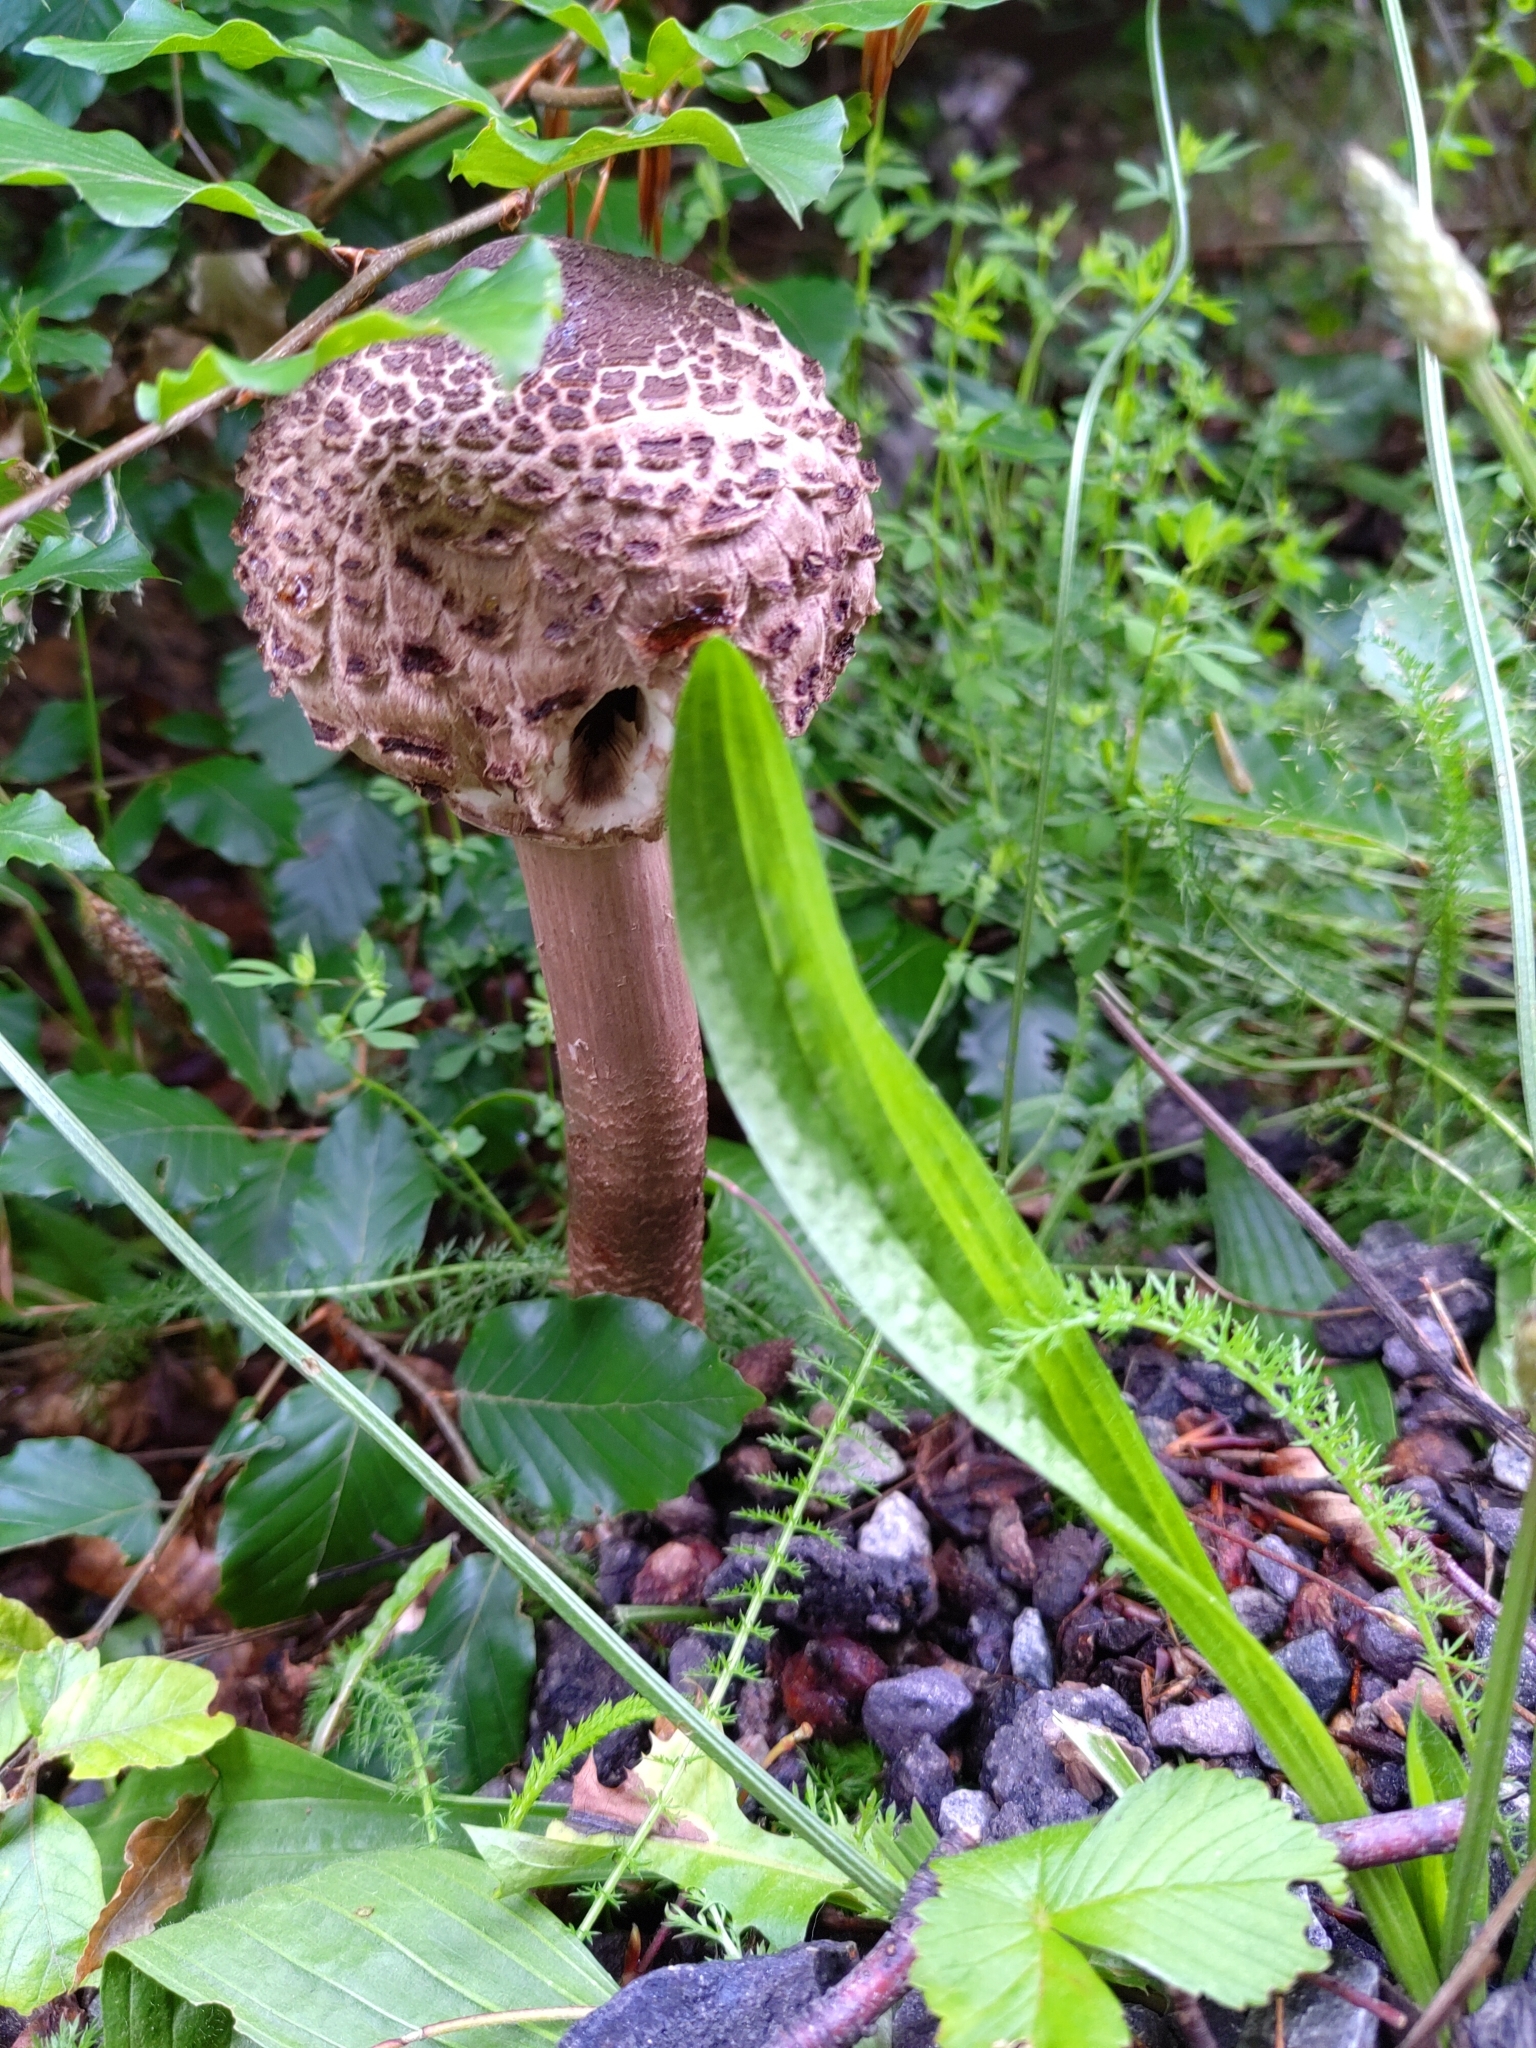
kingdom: Fungi
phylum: Basidiomycota
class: Agaricomycetes
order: Agaricales
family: Agaricaceae
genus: Macrolepiota
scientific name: Macrolepiota procera
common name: Parasol
